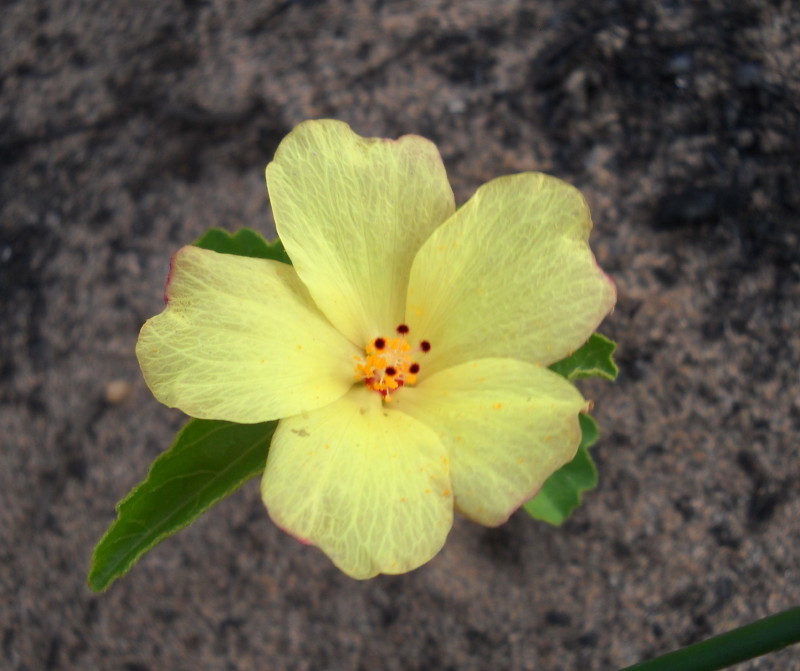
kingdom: Plantae
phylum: Tracheophyta
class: Magnoliopsida
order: Malvales
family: Malvaceae
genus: Hibiscus
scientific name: Hibiscus aethiopicus
